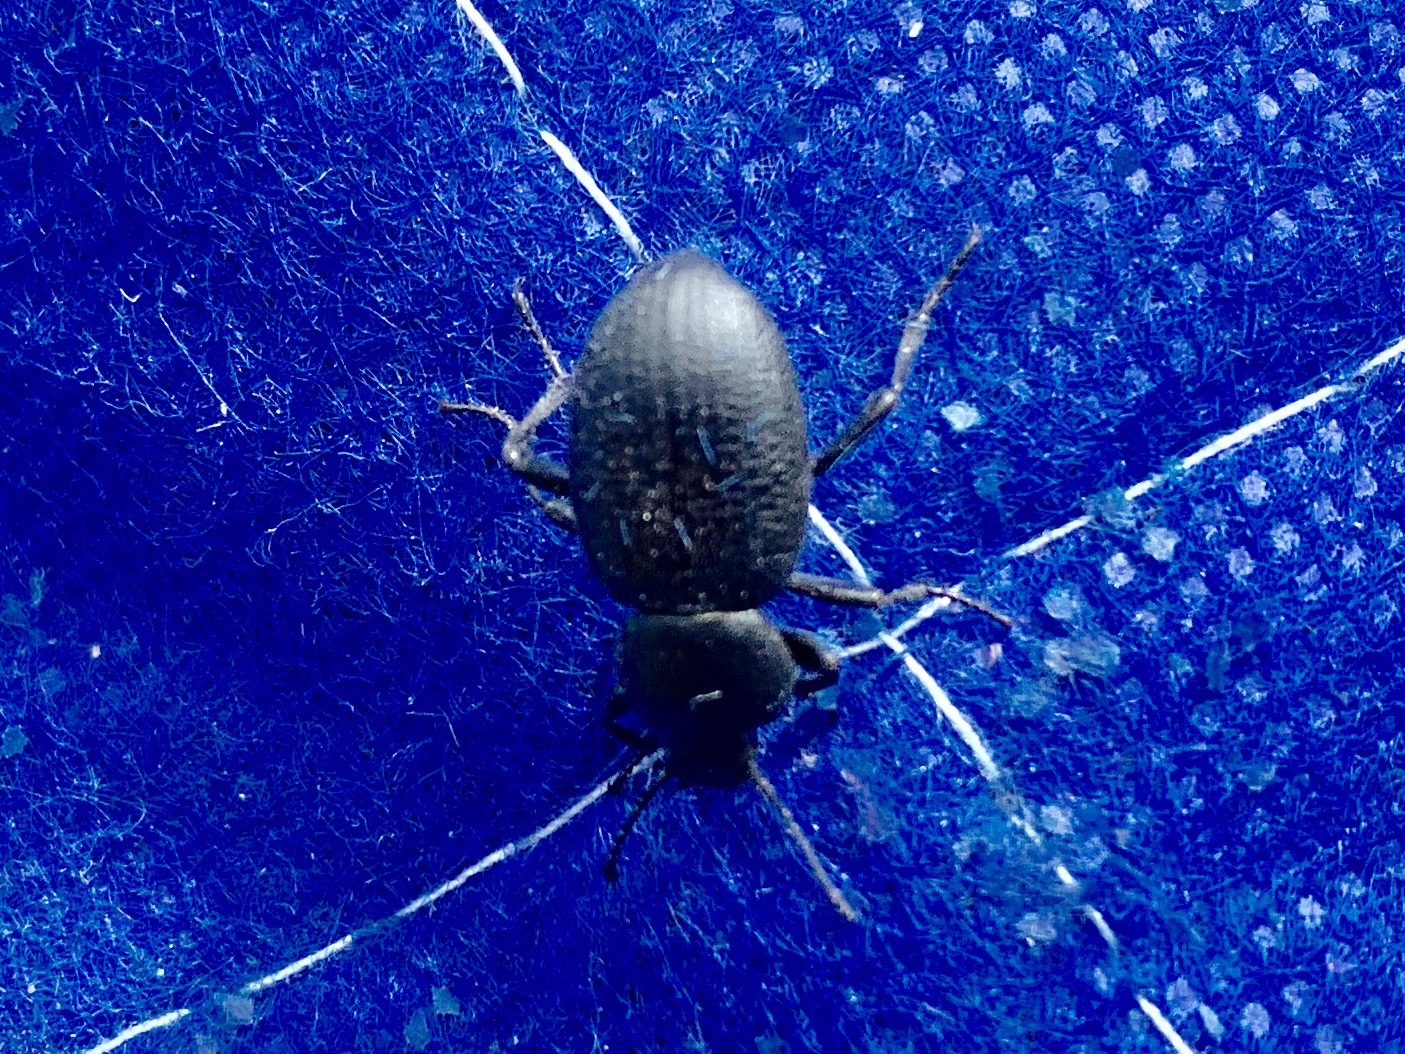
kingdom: Animalia
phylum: Arthropoda
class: Insecta
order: Coleoptera
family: Tenebrionidae
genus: Eleodes
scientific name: Eleodes snowii
